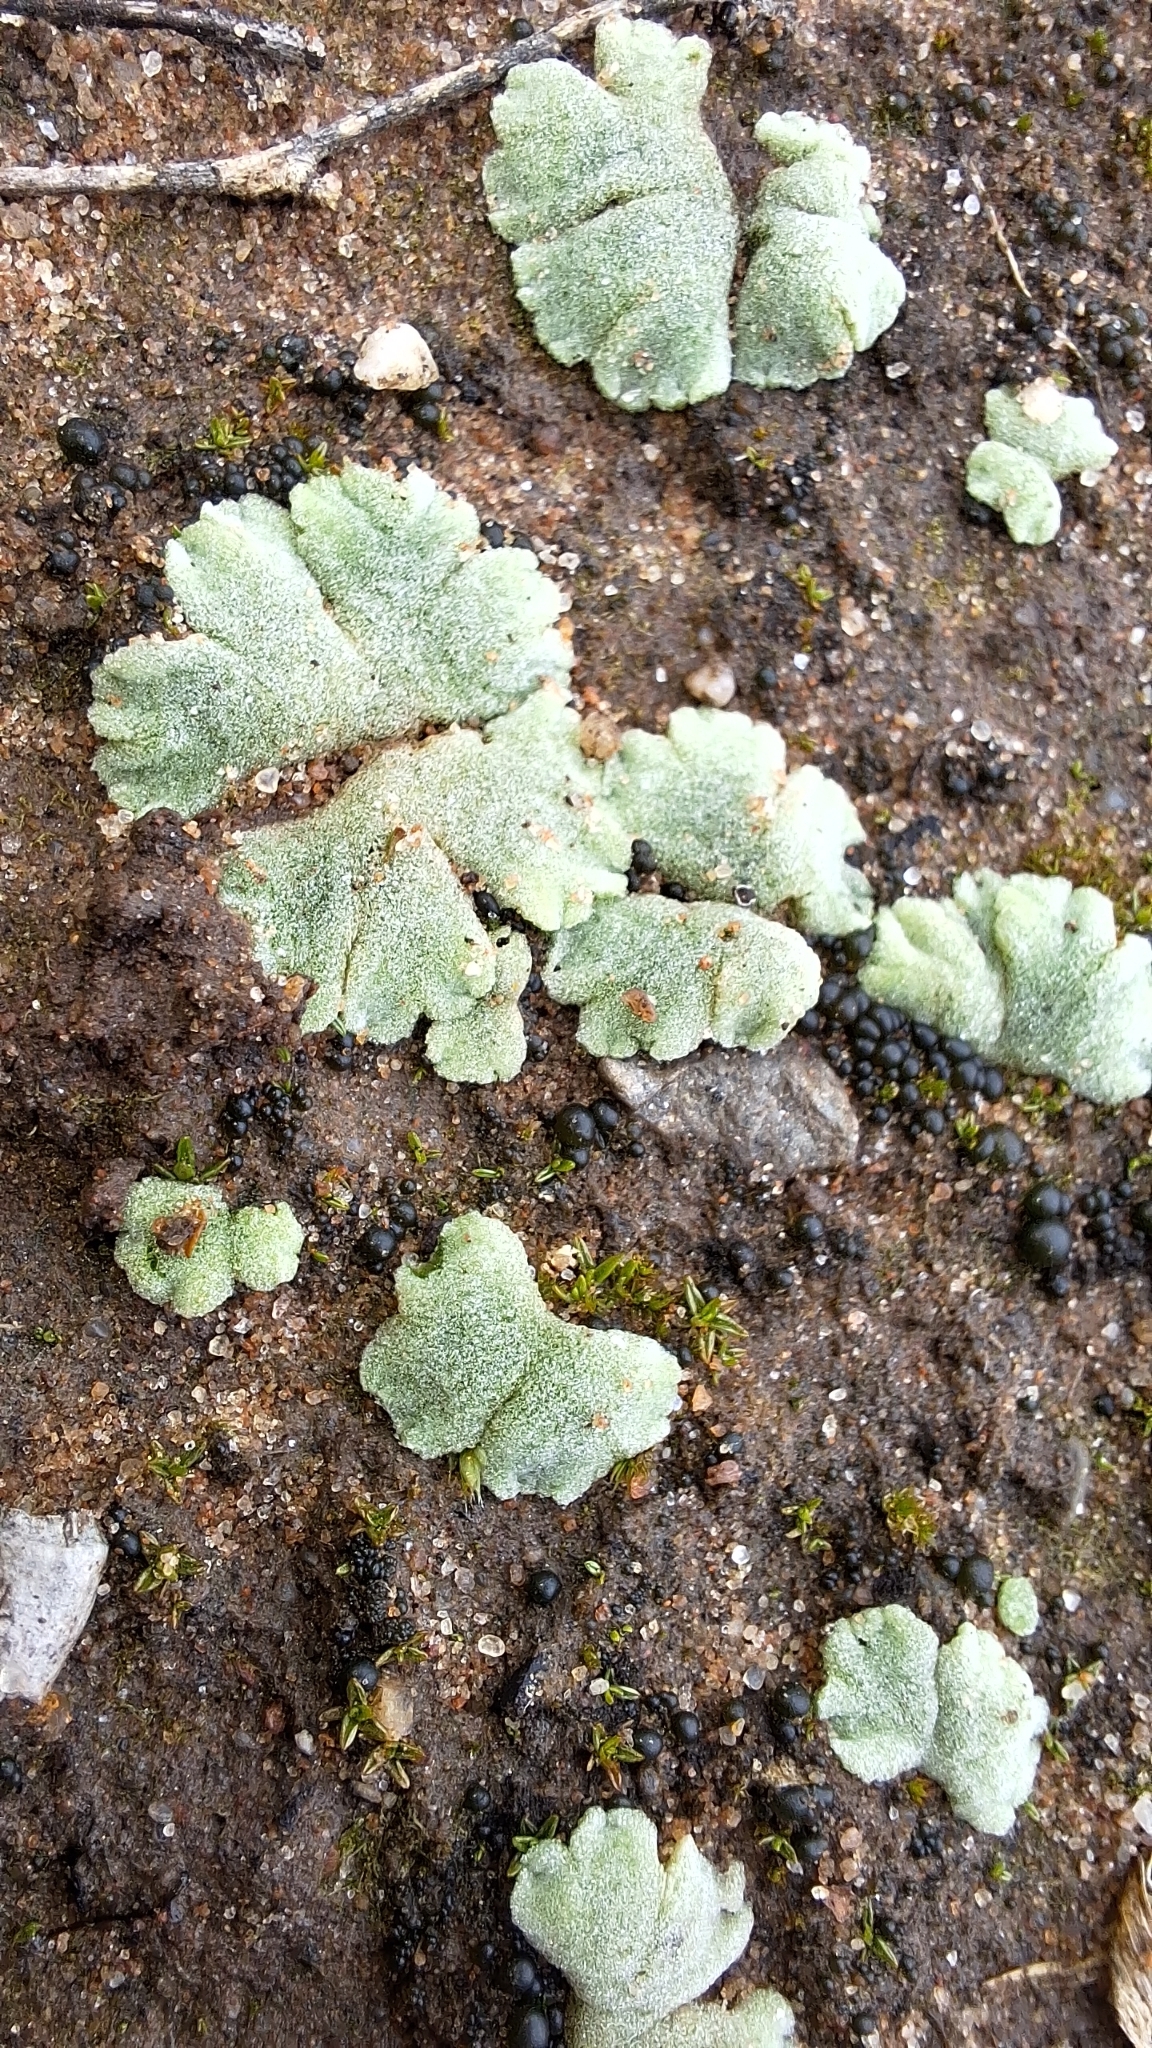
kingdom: Plantae
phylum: Marchantiophyta
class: Marchantiopsida
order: Marchantiales
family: Ricciaceae
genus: Riccia
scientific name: Riccia crystallina
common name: Blue crystalwort
